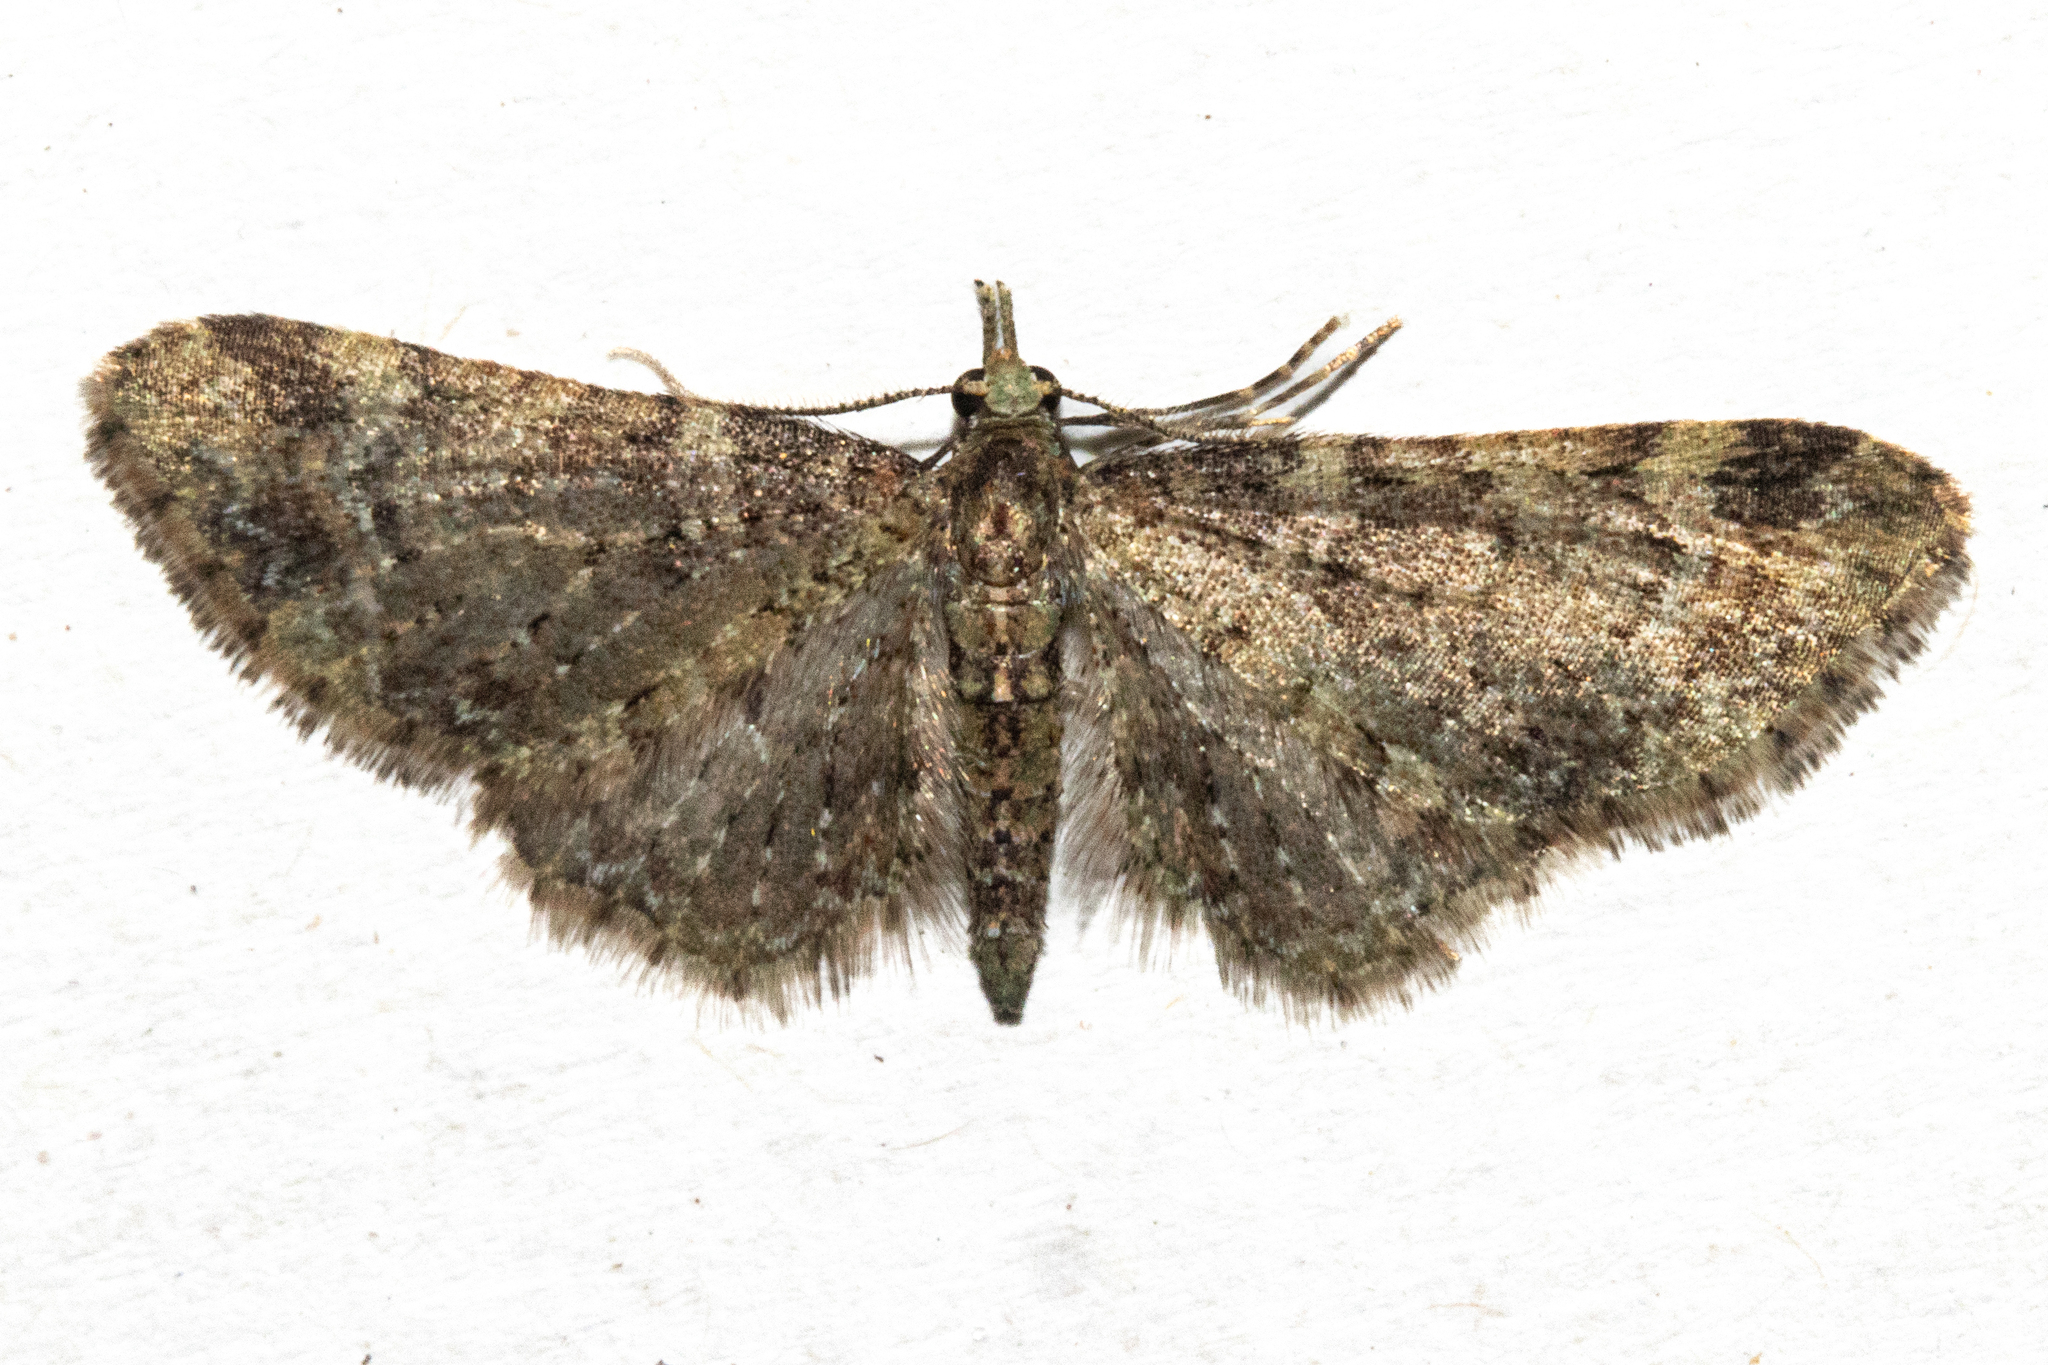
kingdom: Animalia
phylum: Arthropoda
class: Insecta
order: Lepidoptera
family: Geometridae
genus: Pasiphila
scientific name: Pasiphila plinthina
